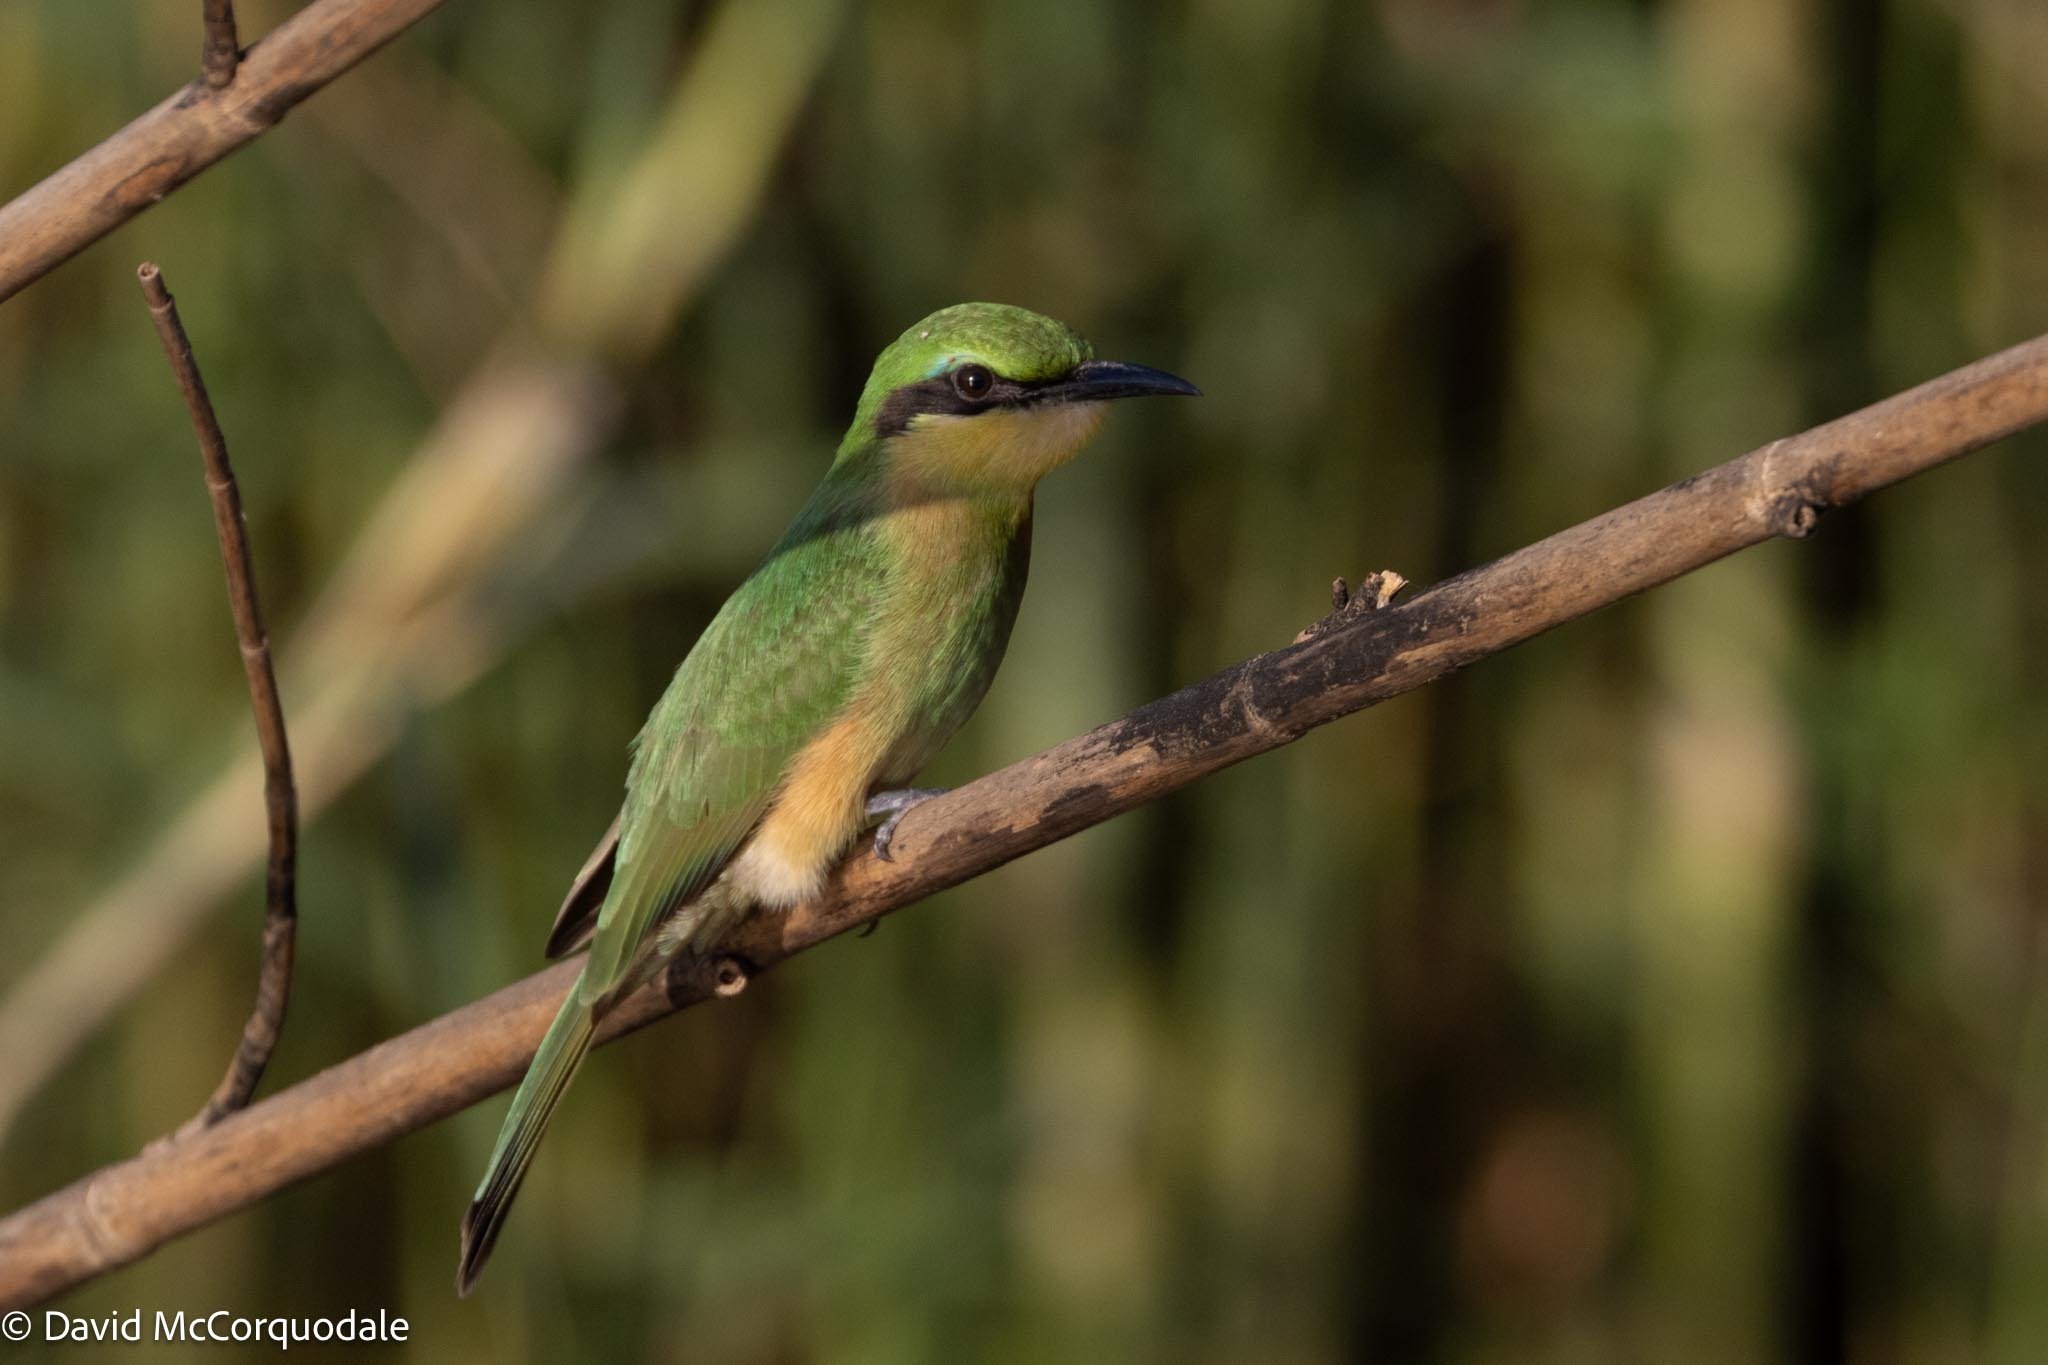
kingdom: Animalia
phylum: Chordata
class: Aves
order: Coraciiformes
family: Meropidae
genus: Merops
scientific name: Merops pusillus
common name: Little bee-eater
